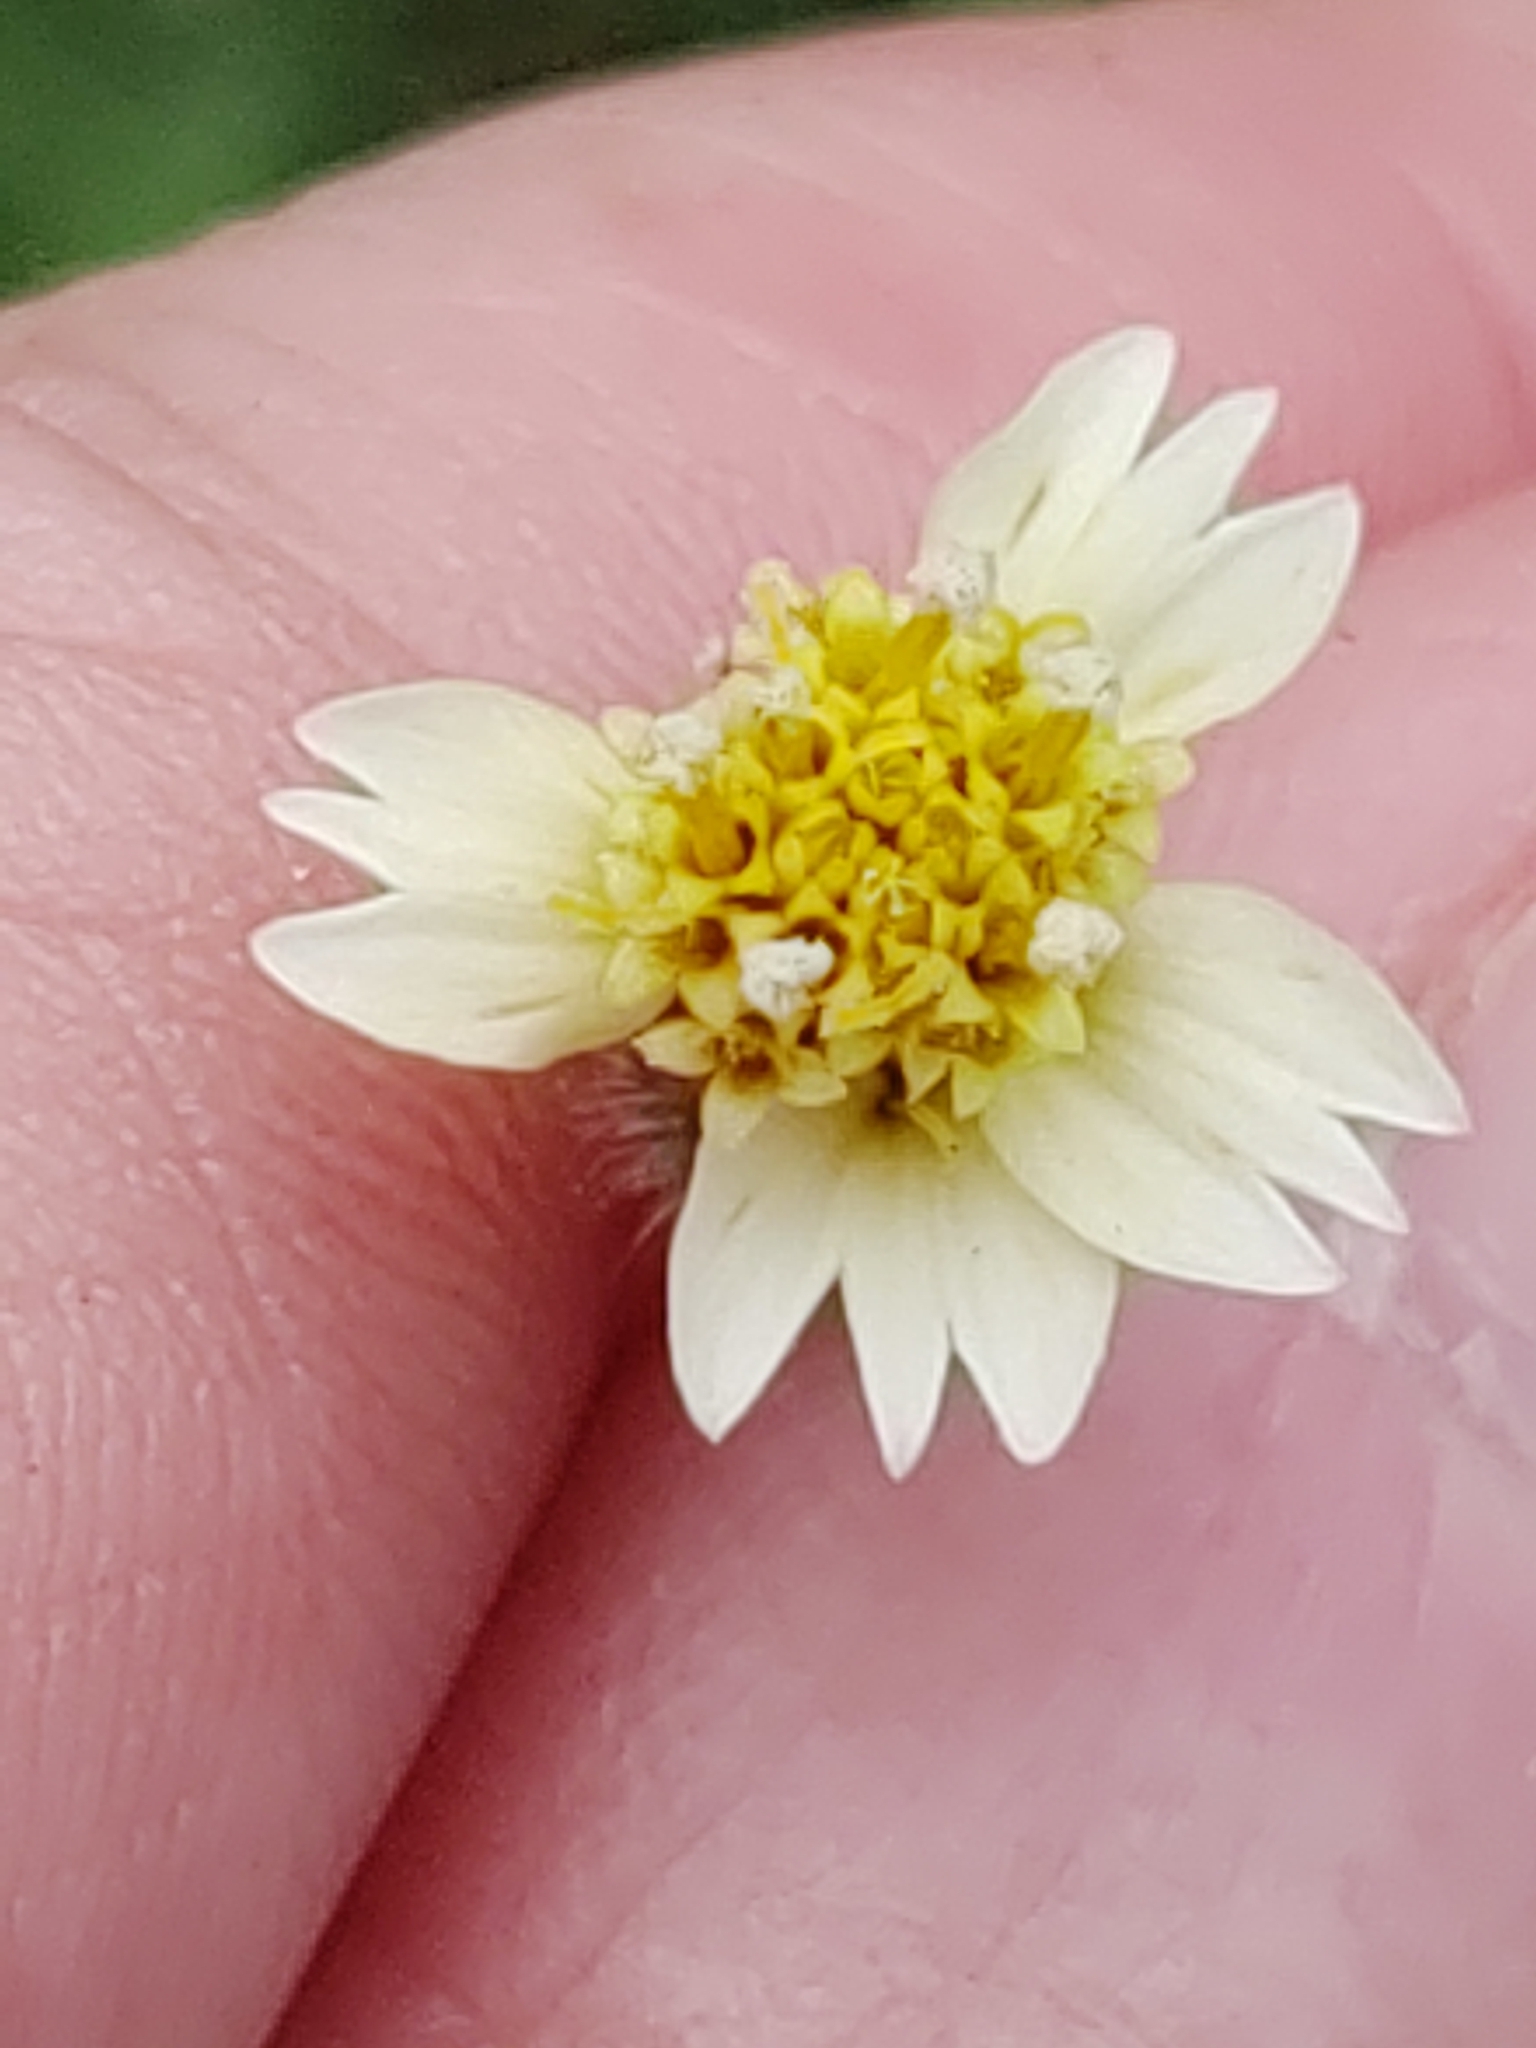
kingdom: Plantae
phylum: Tracheophyta
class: Magnoliopsida
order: Asterales
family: Asteraceae
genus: Tridax
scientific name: Tridax procumbens
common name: Coatbuttons
